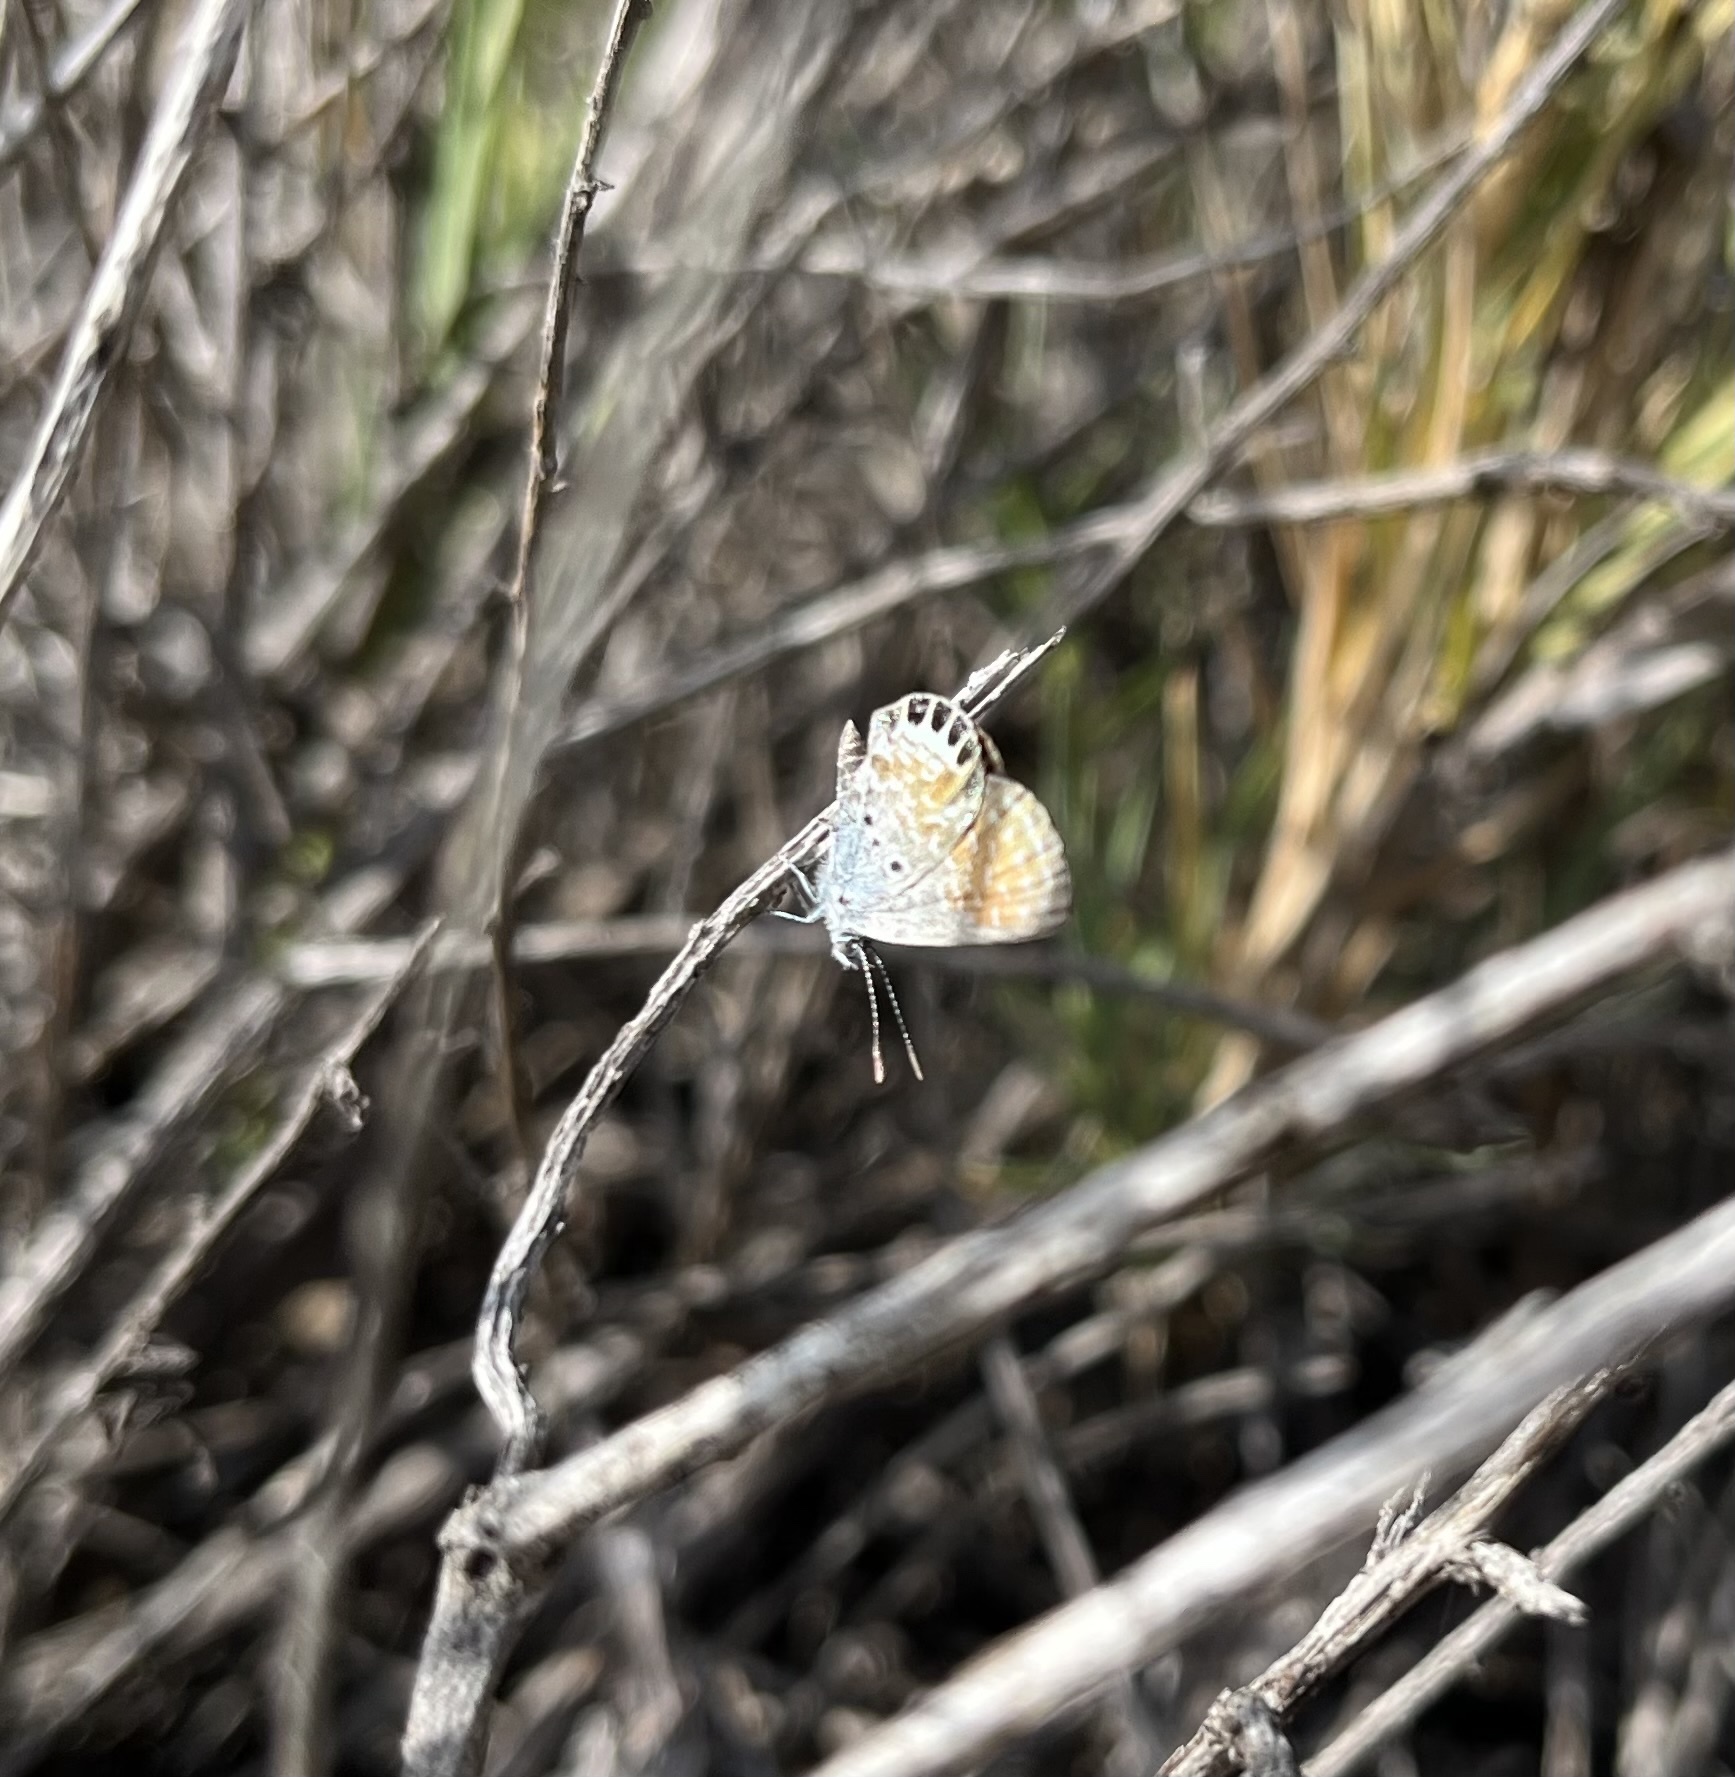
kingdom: Animalia
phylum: Arthropoda
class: Insecta
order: Lepidoptera
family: Lycaenidae
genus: Brephidium
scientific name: Brephidium exilis
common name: Pygmy blue
